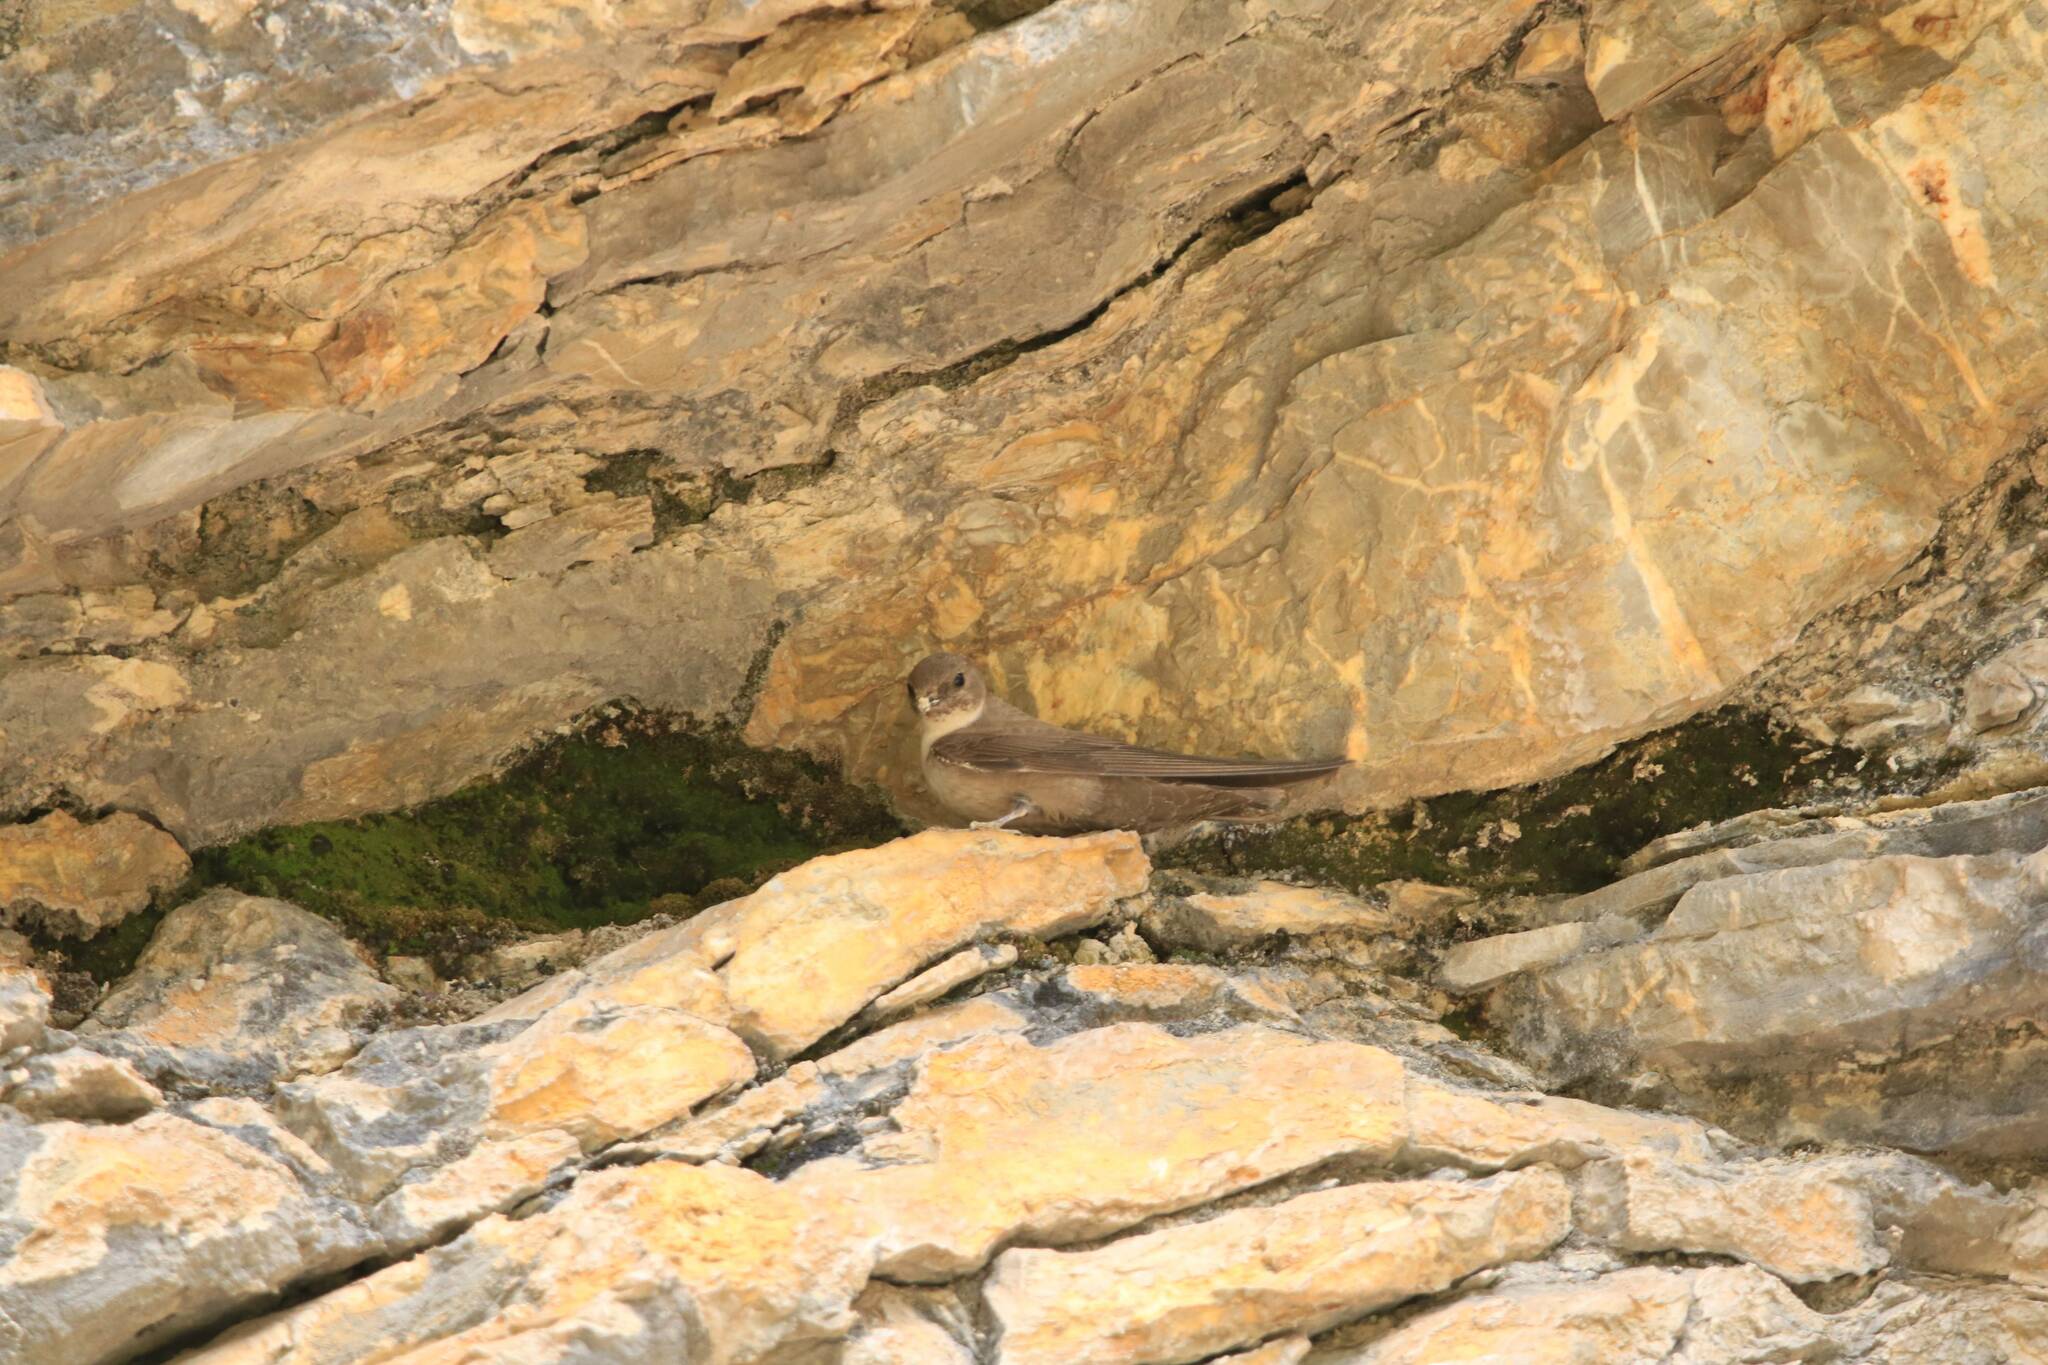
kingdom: Animalia
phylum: Chordata
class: Aves
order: Passeriformes
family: Hirundinidae
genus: Ptyonoprogne
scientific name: Ptyonoprogne rupestris
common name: Eurasian crag martin
